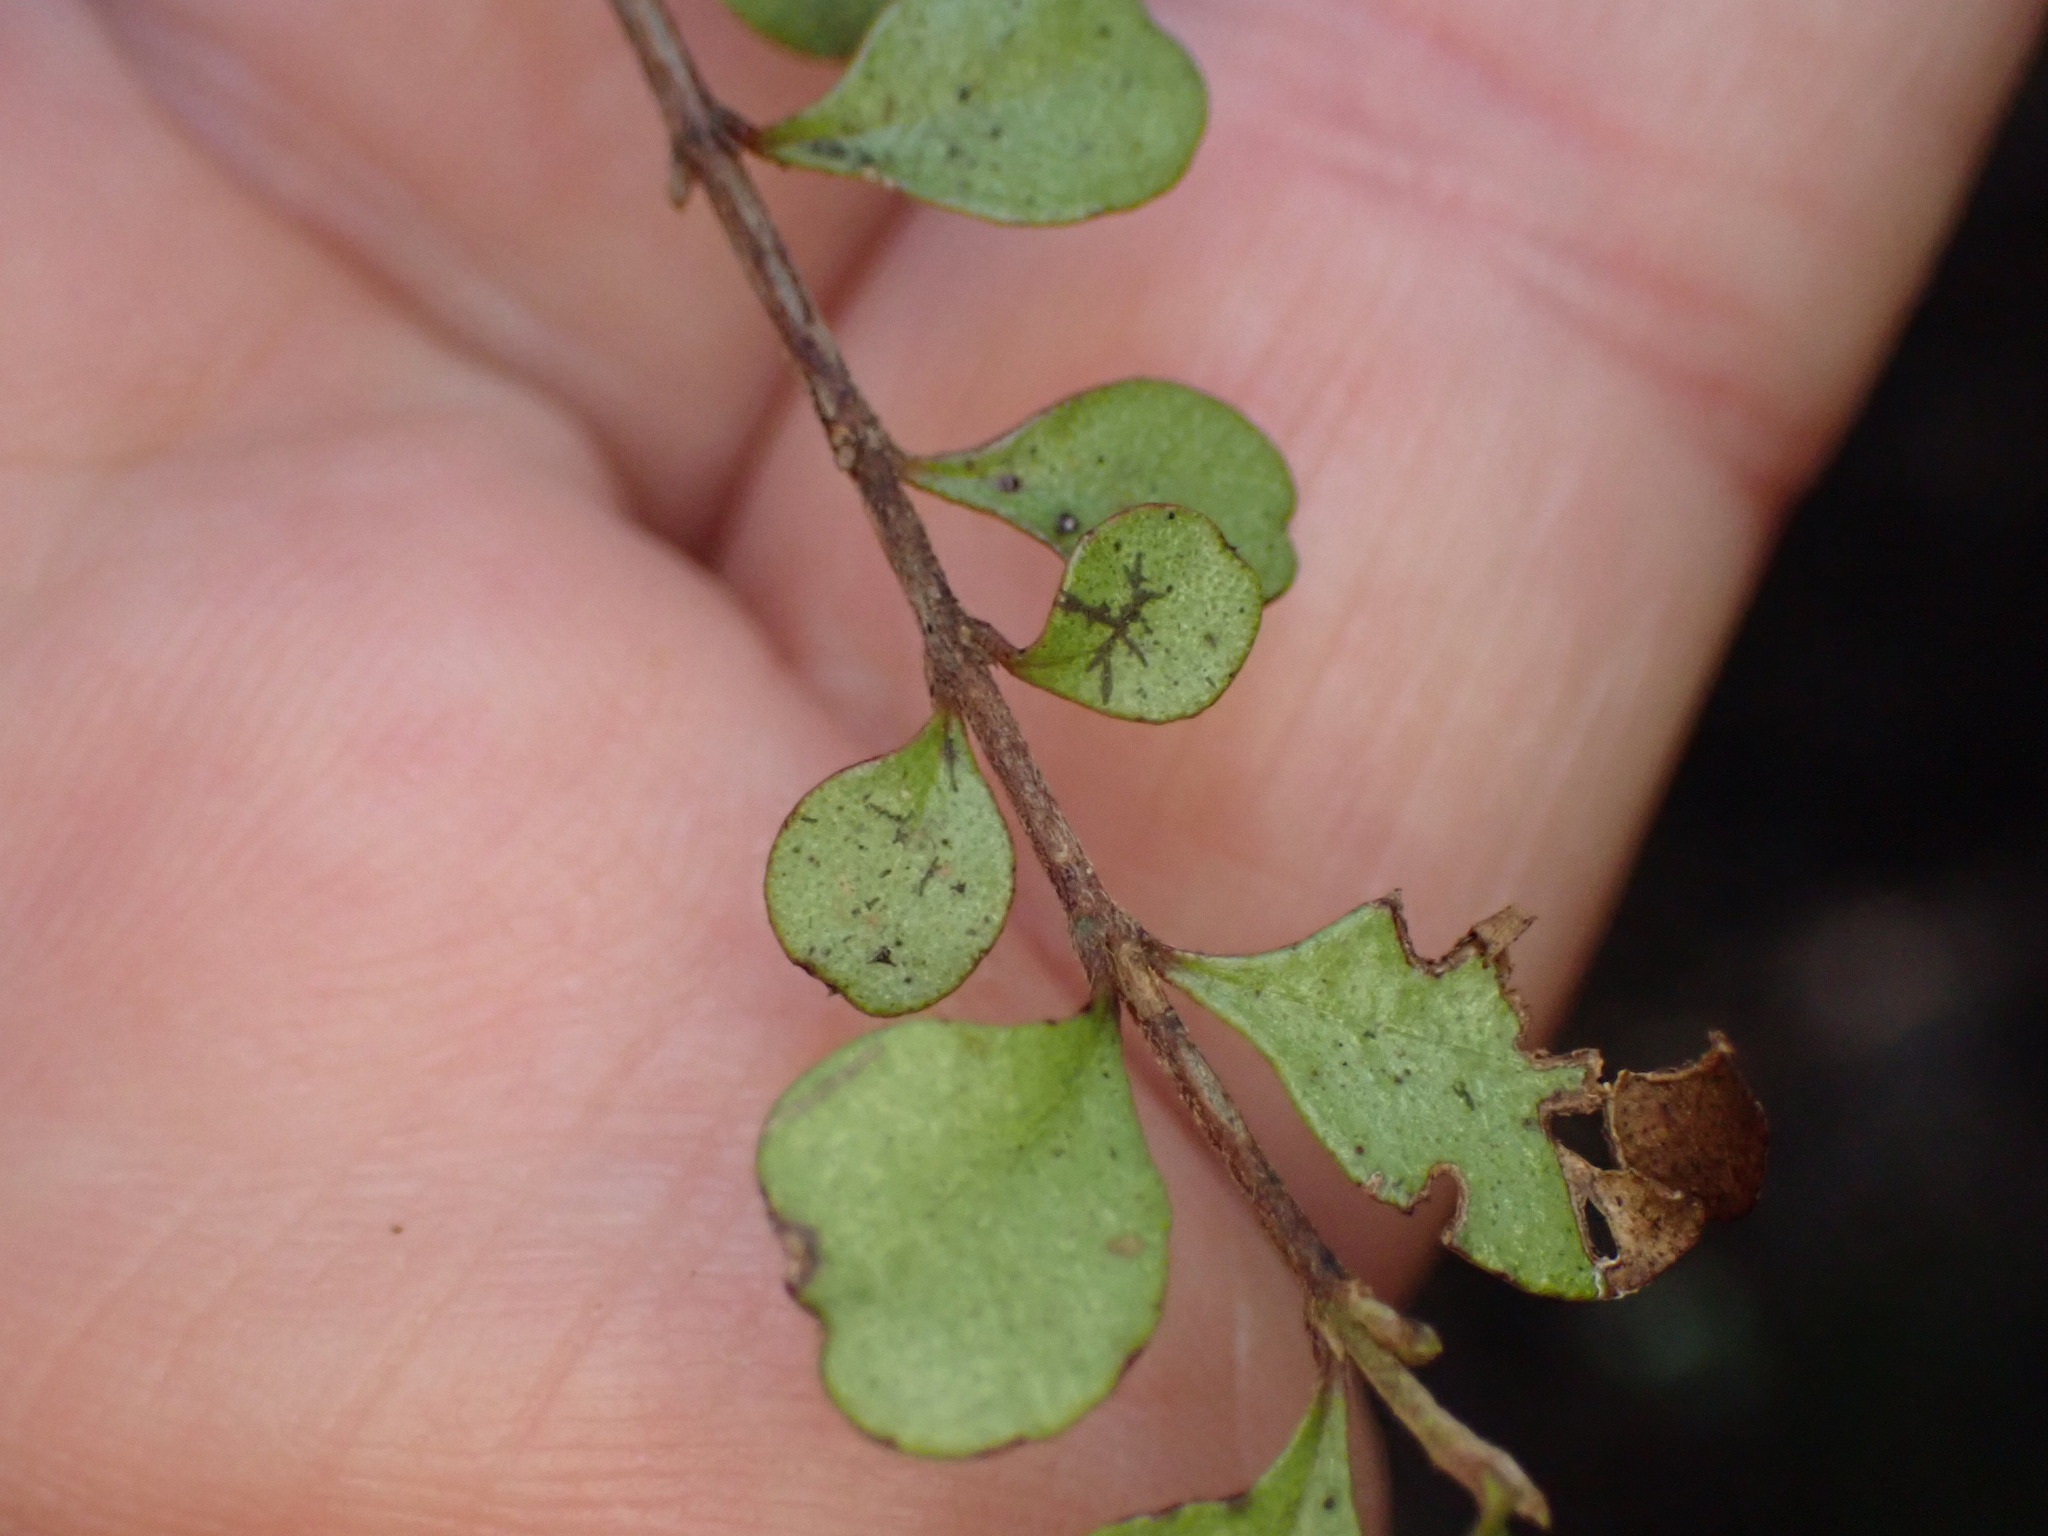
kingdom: Plantae
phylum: Tracheophyta
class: Magnoliopsida
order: Myrtales
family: Myrtaceae
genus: Lophomyrtus
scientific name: Lophomyrtus obcordata
